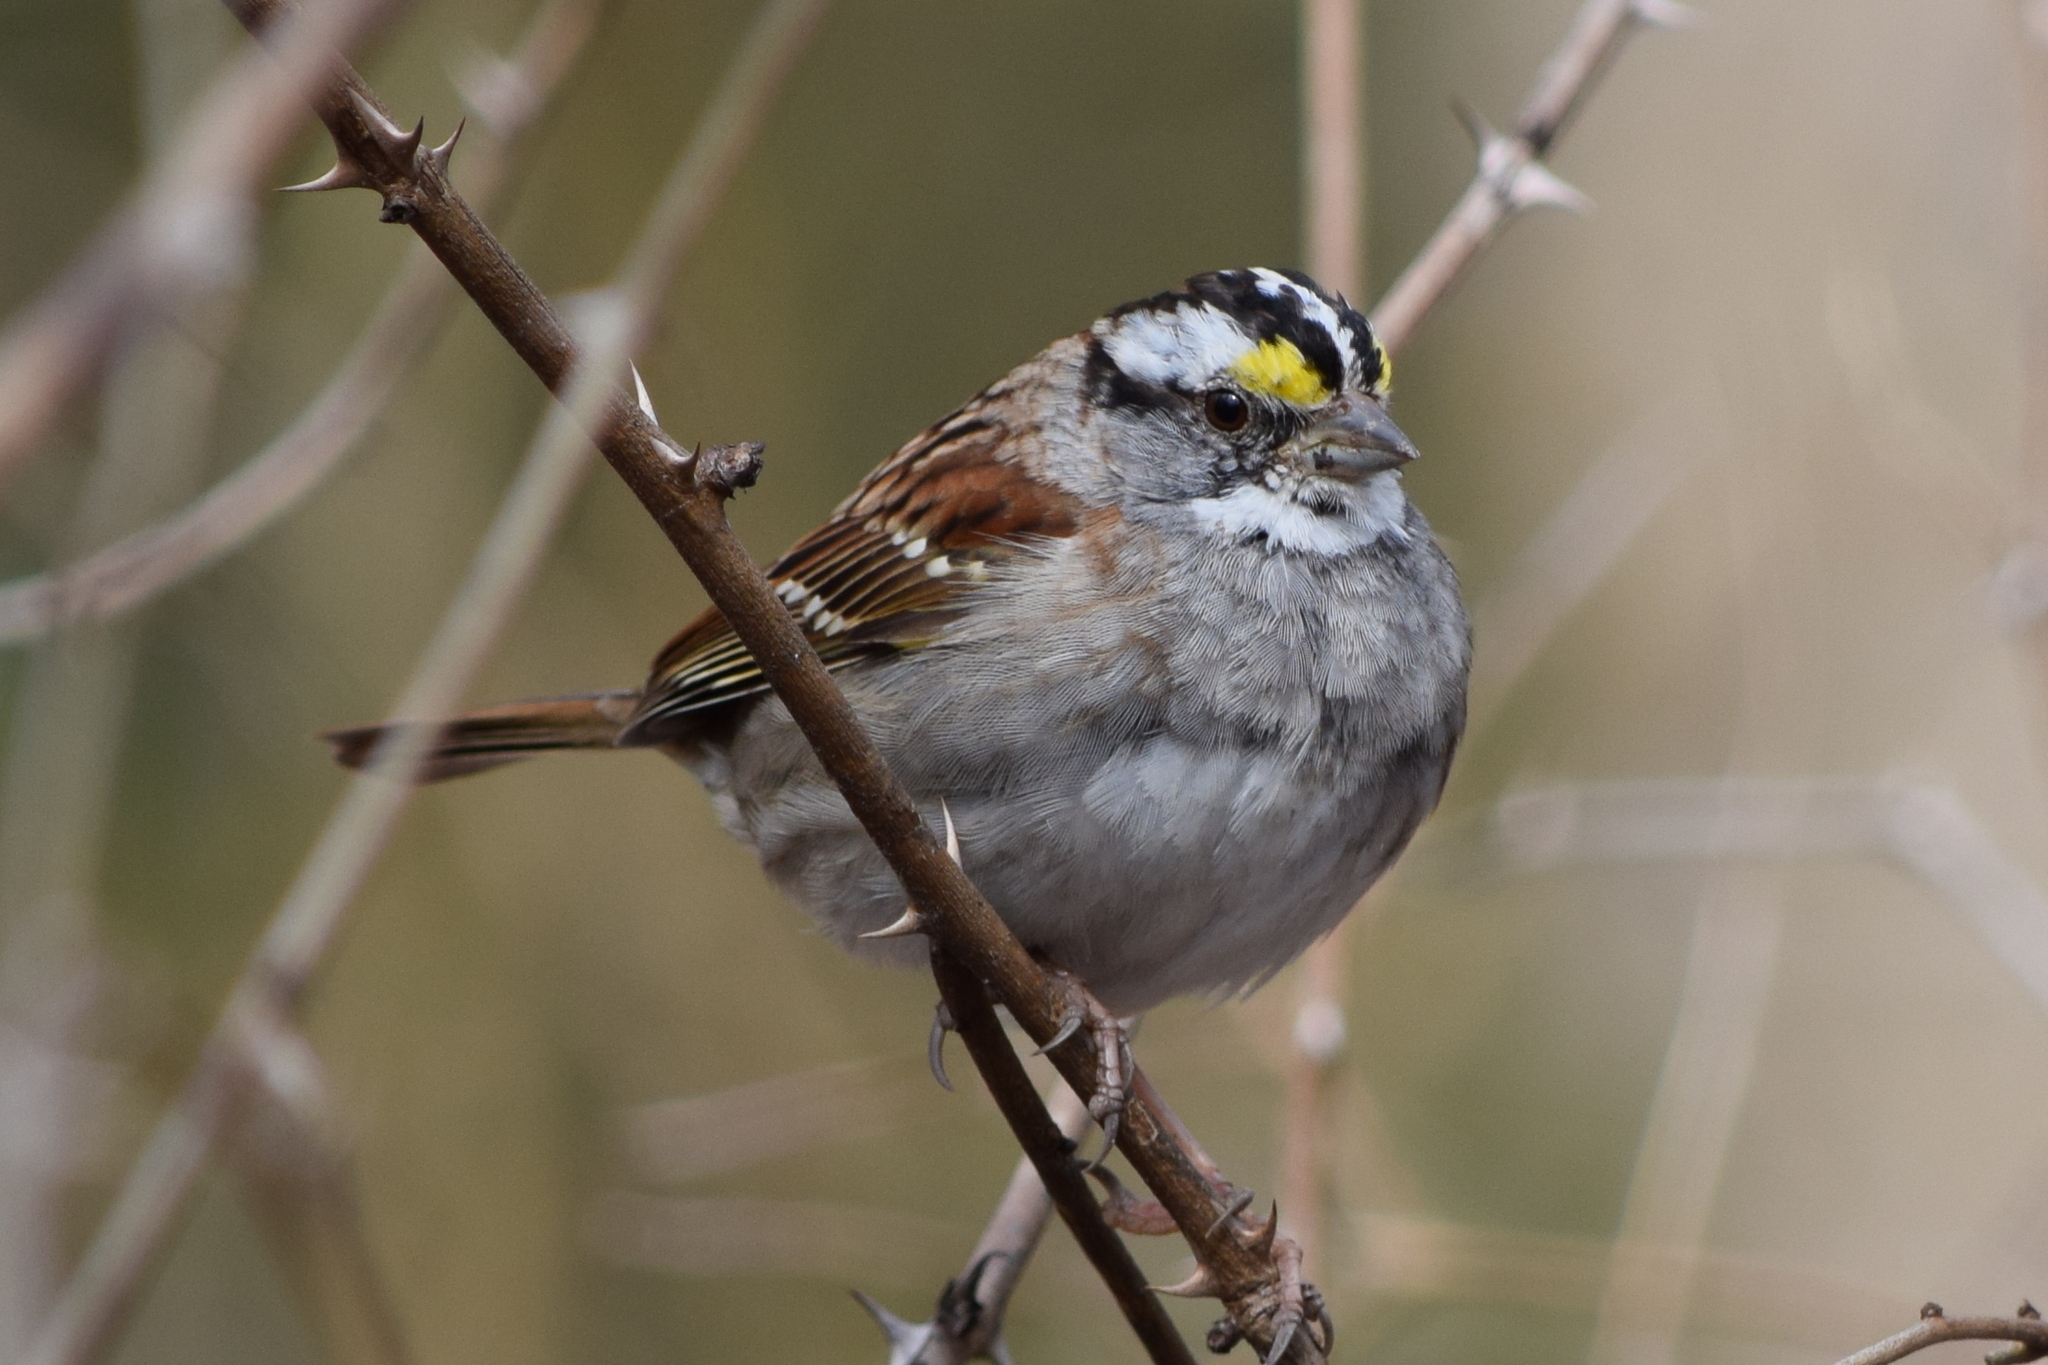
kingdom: Animalia
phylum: Chordata
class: Aves
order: Passeriformes
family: Passerellidae
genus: Zonotrichia
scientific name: Zonotrichia albicollis
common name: White-throated sparrow
